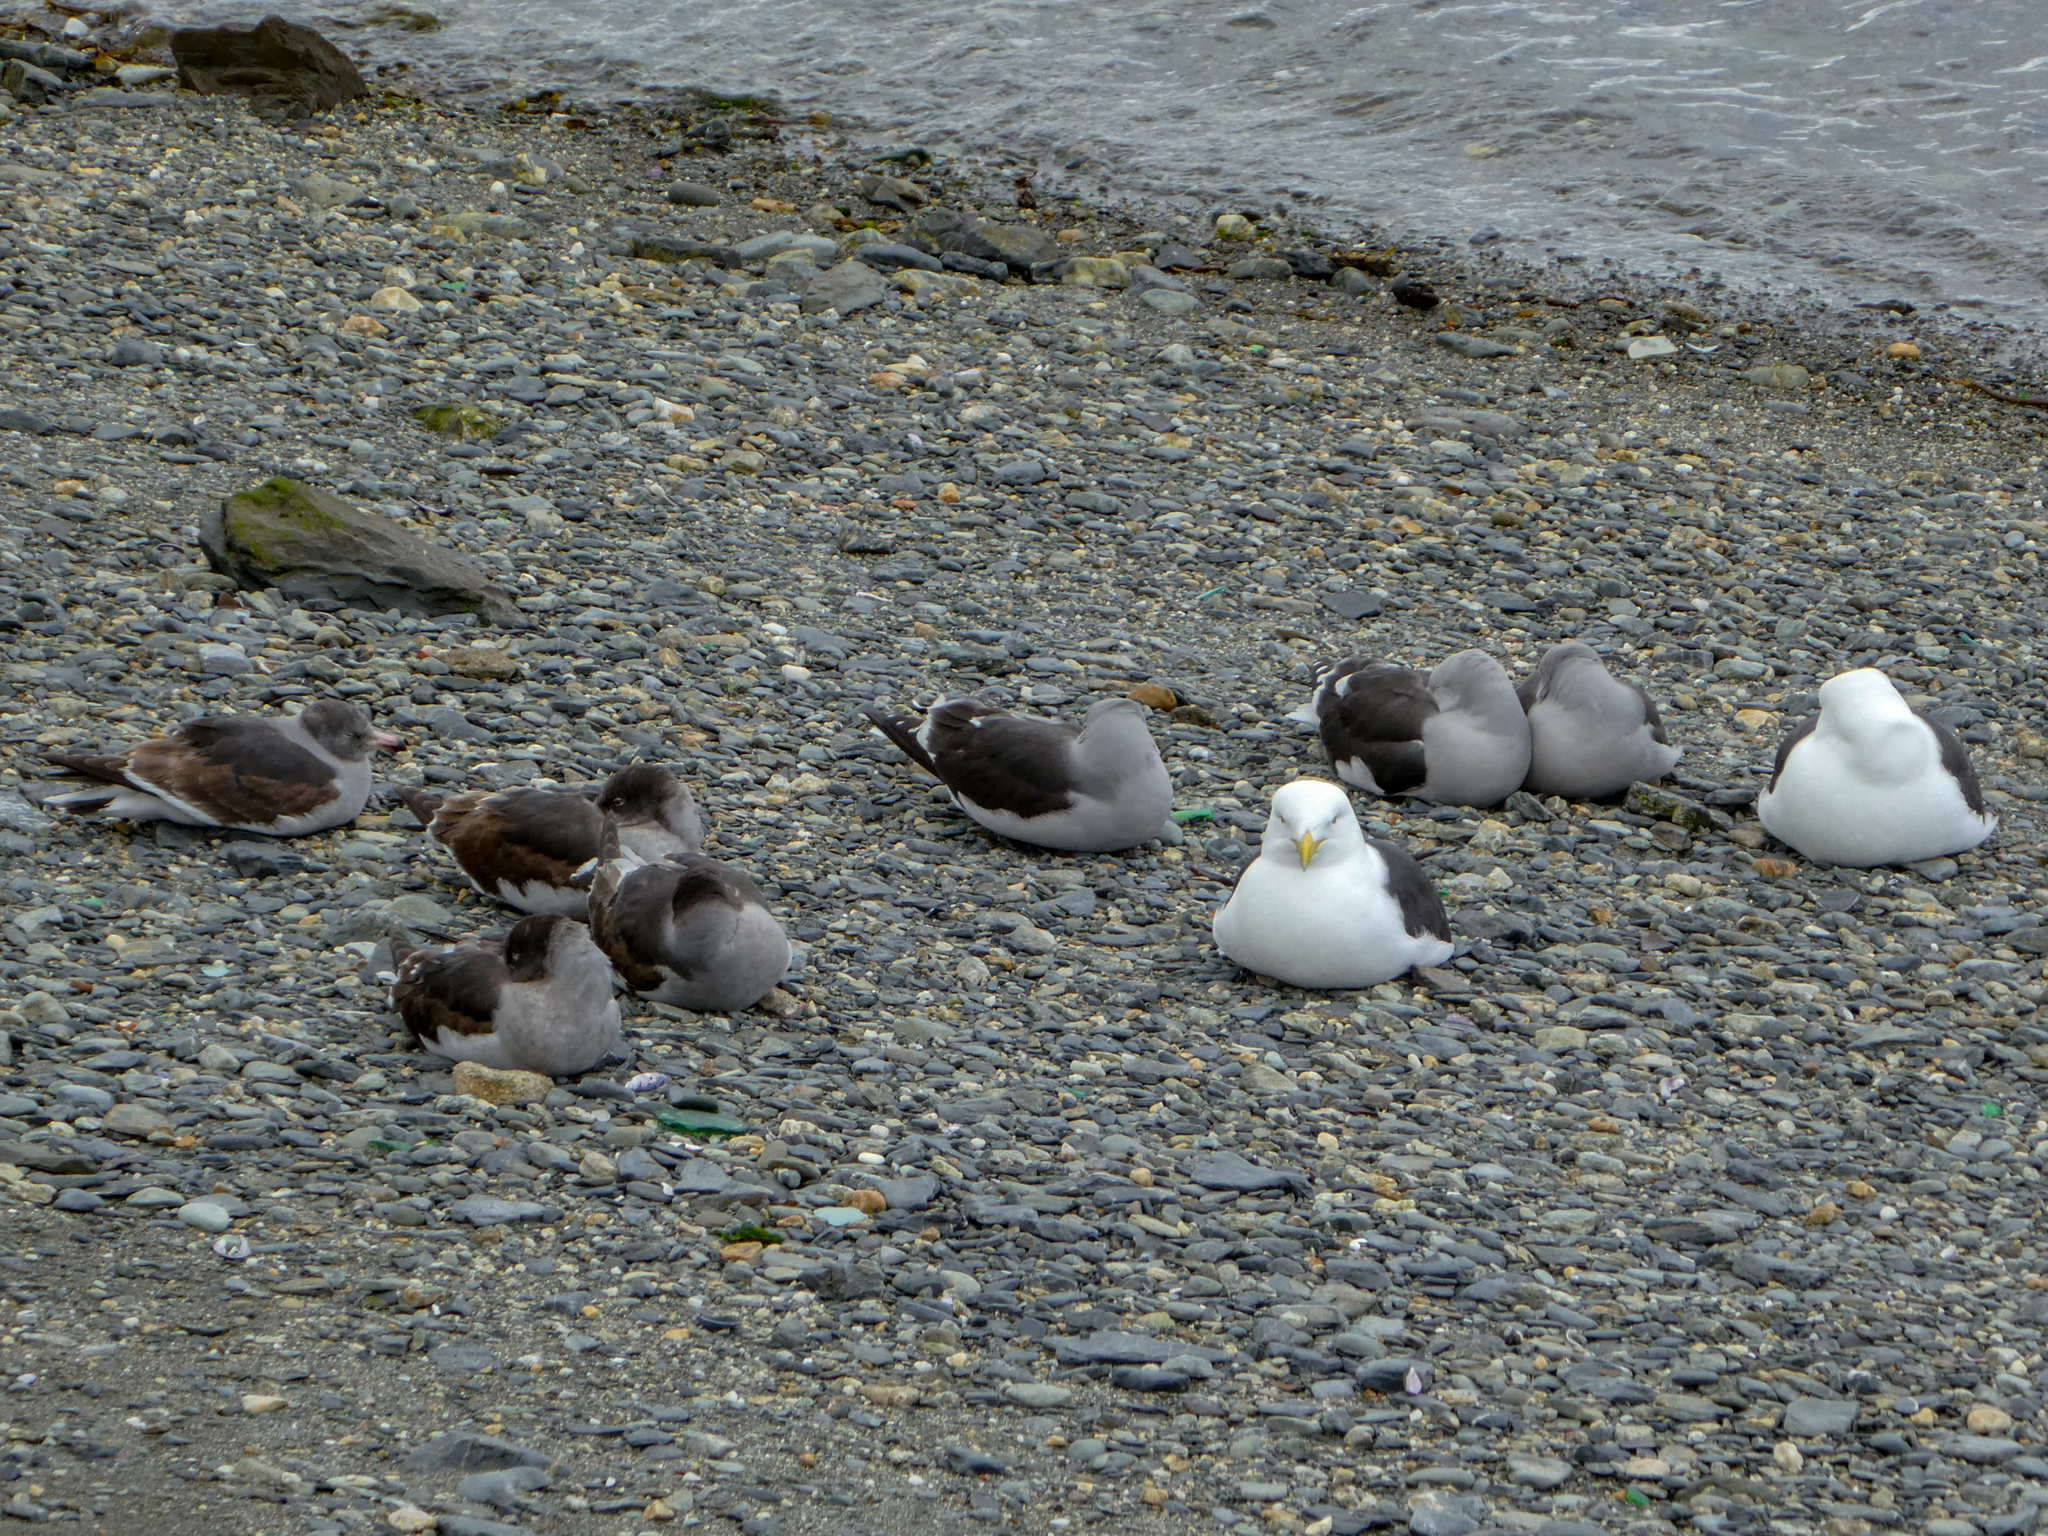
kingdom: Animalia
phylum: Chordata
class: Aves
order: Charadriiformes
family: Laridae
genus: Larus
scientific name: Larus dominicanus
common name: Kelp gull
